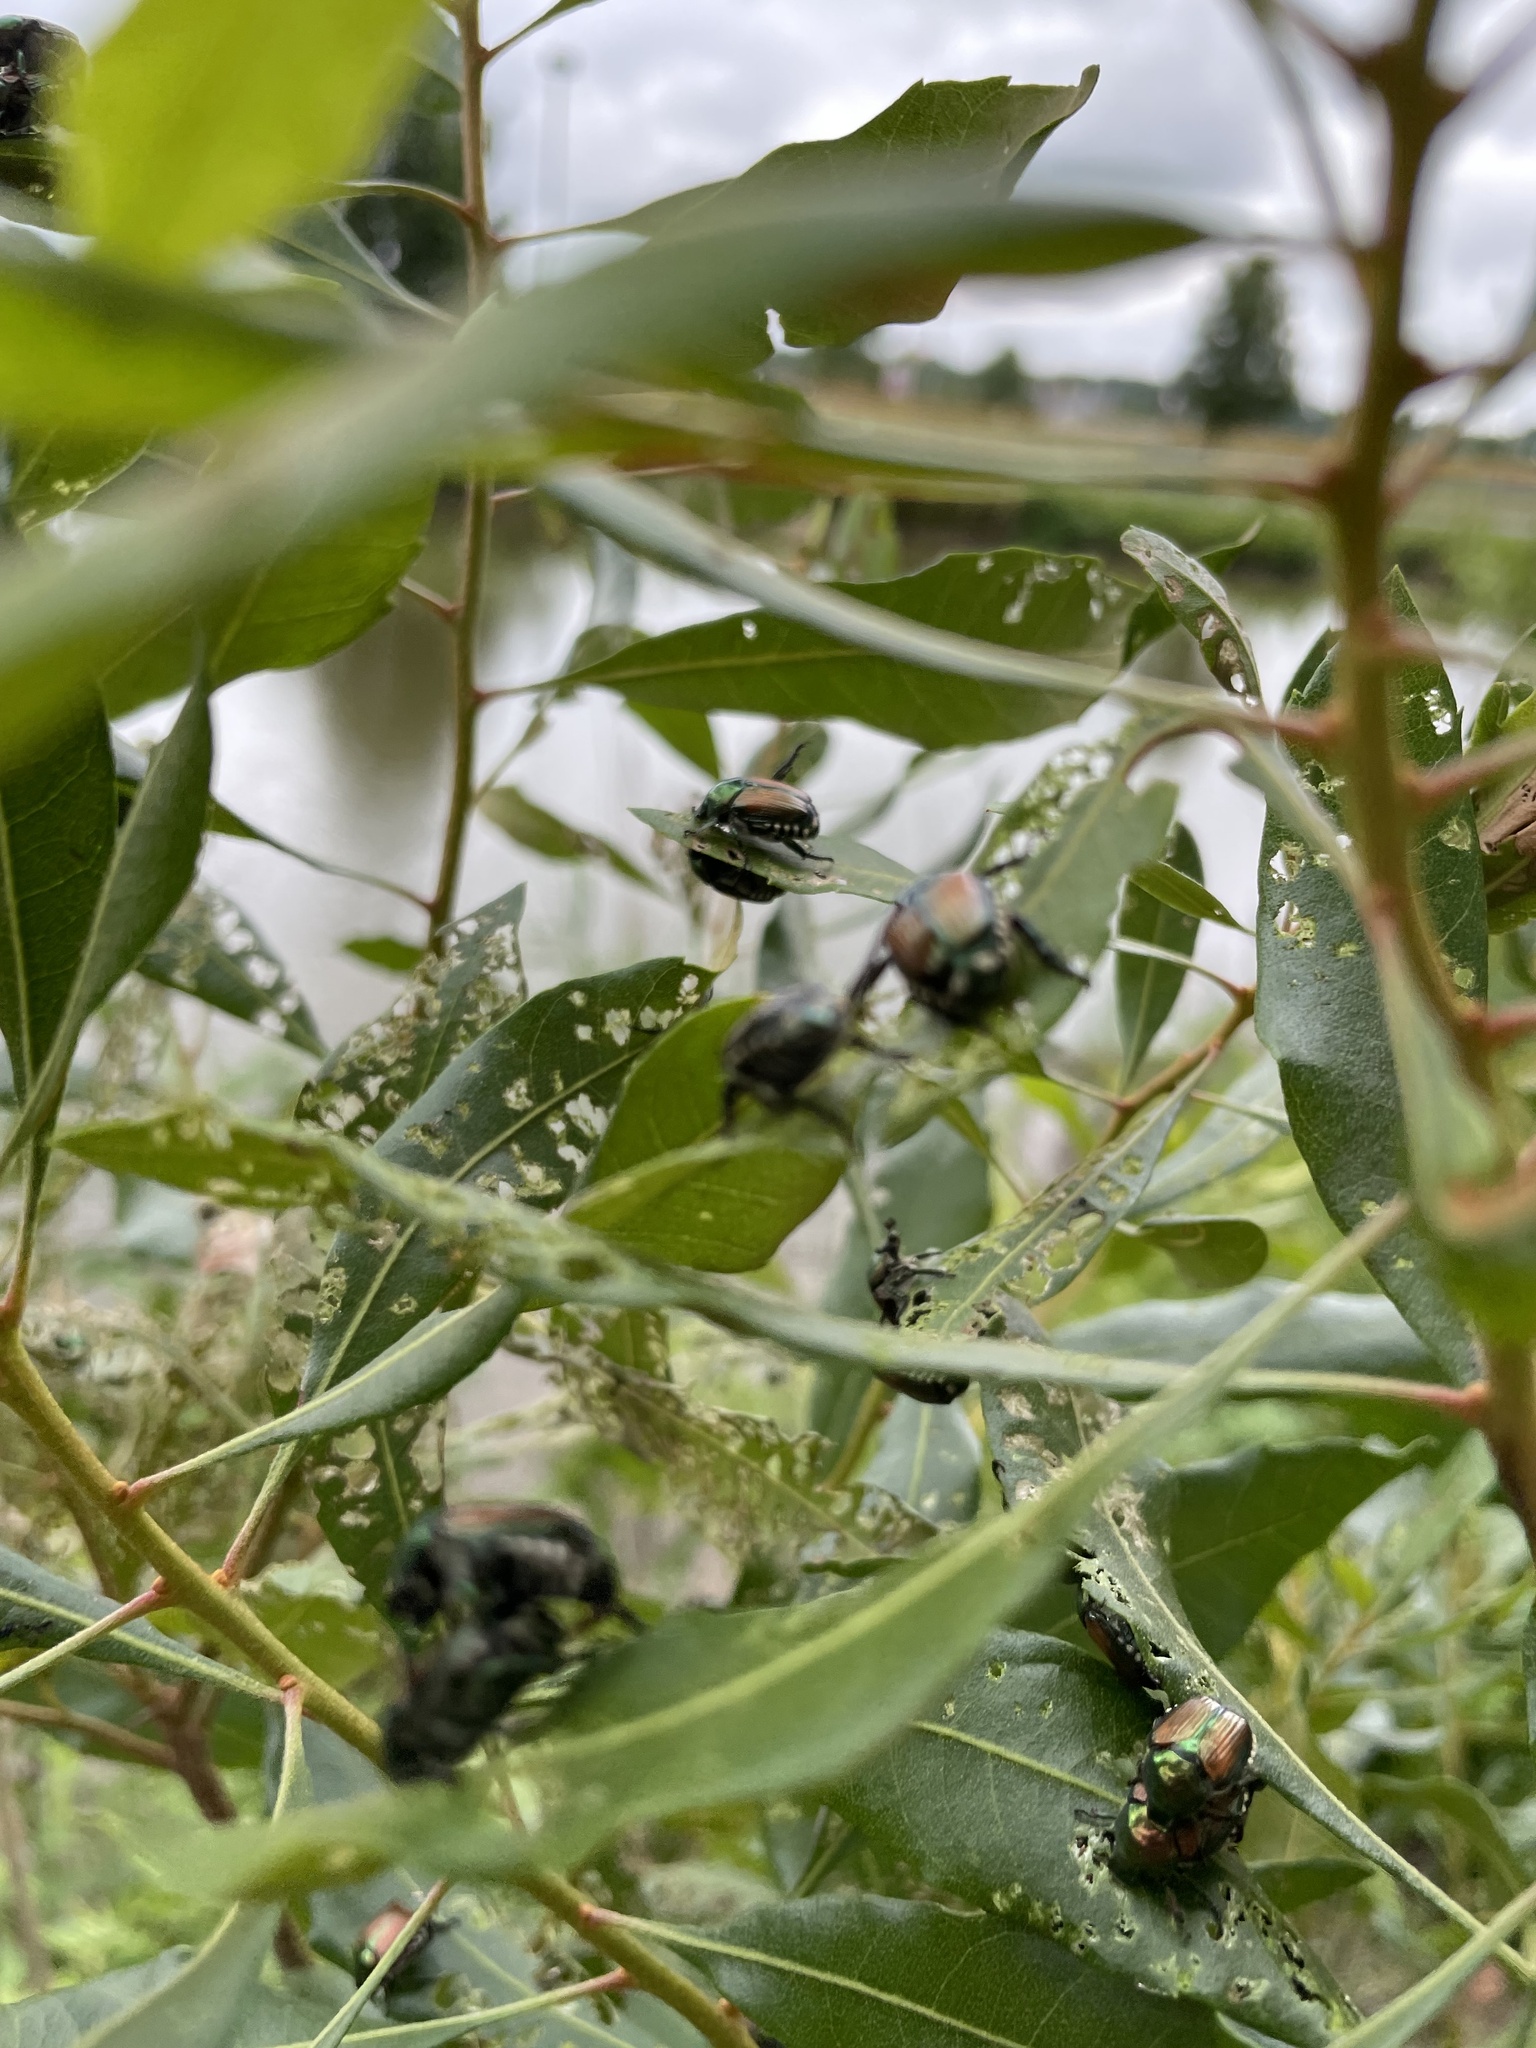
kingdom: Animalia
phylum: Arthropoda
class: Insecta
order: Coleoptera
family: Scarabaeidae
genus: Popillia
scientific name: Popillia japonica
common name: Japanese beetle
